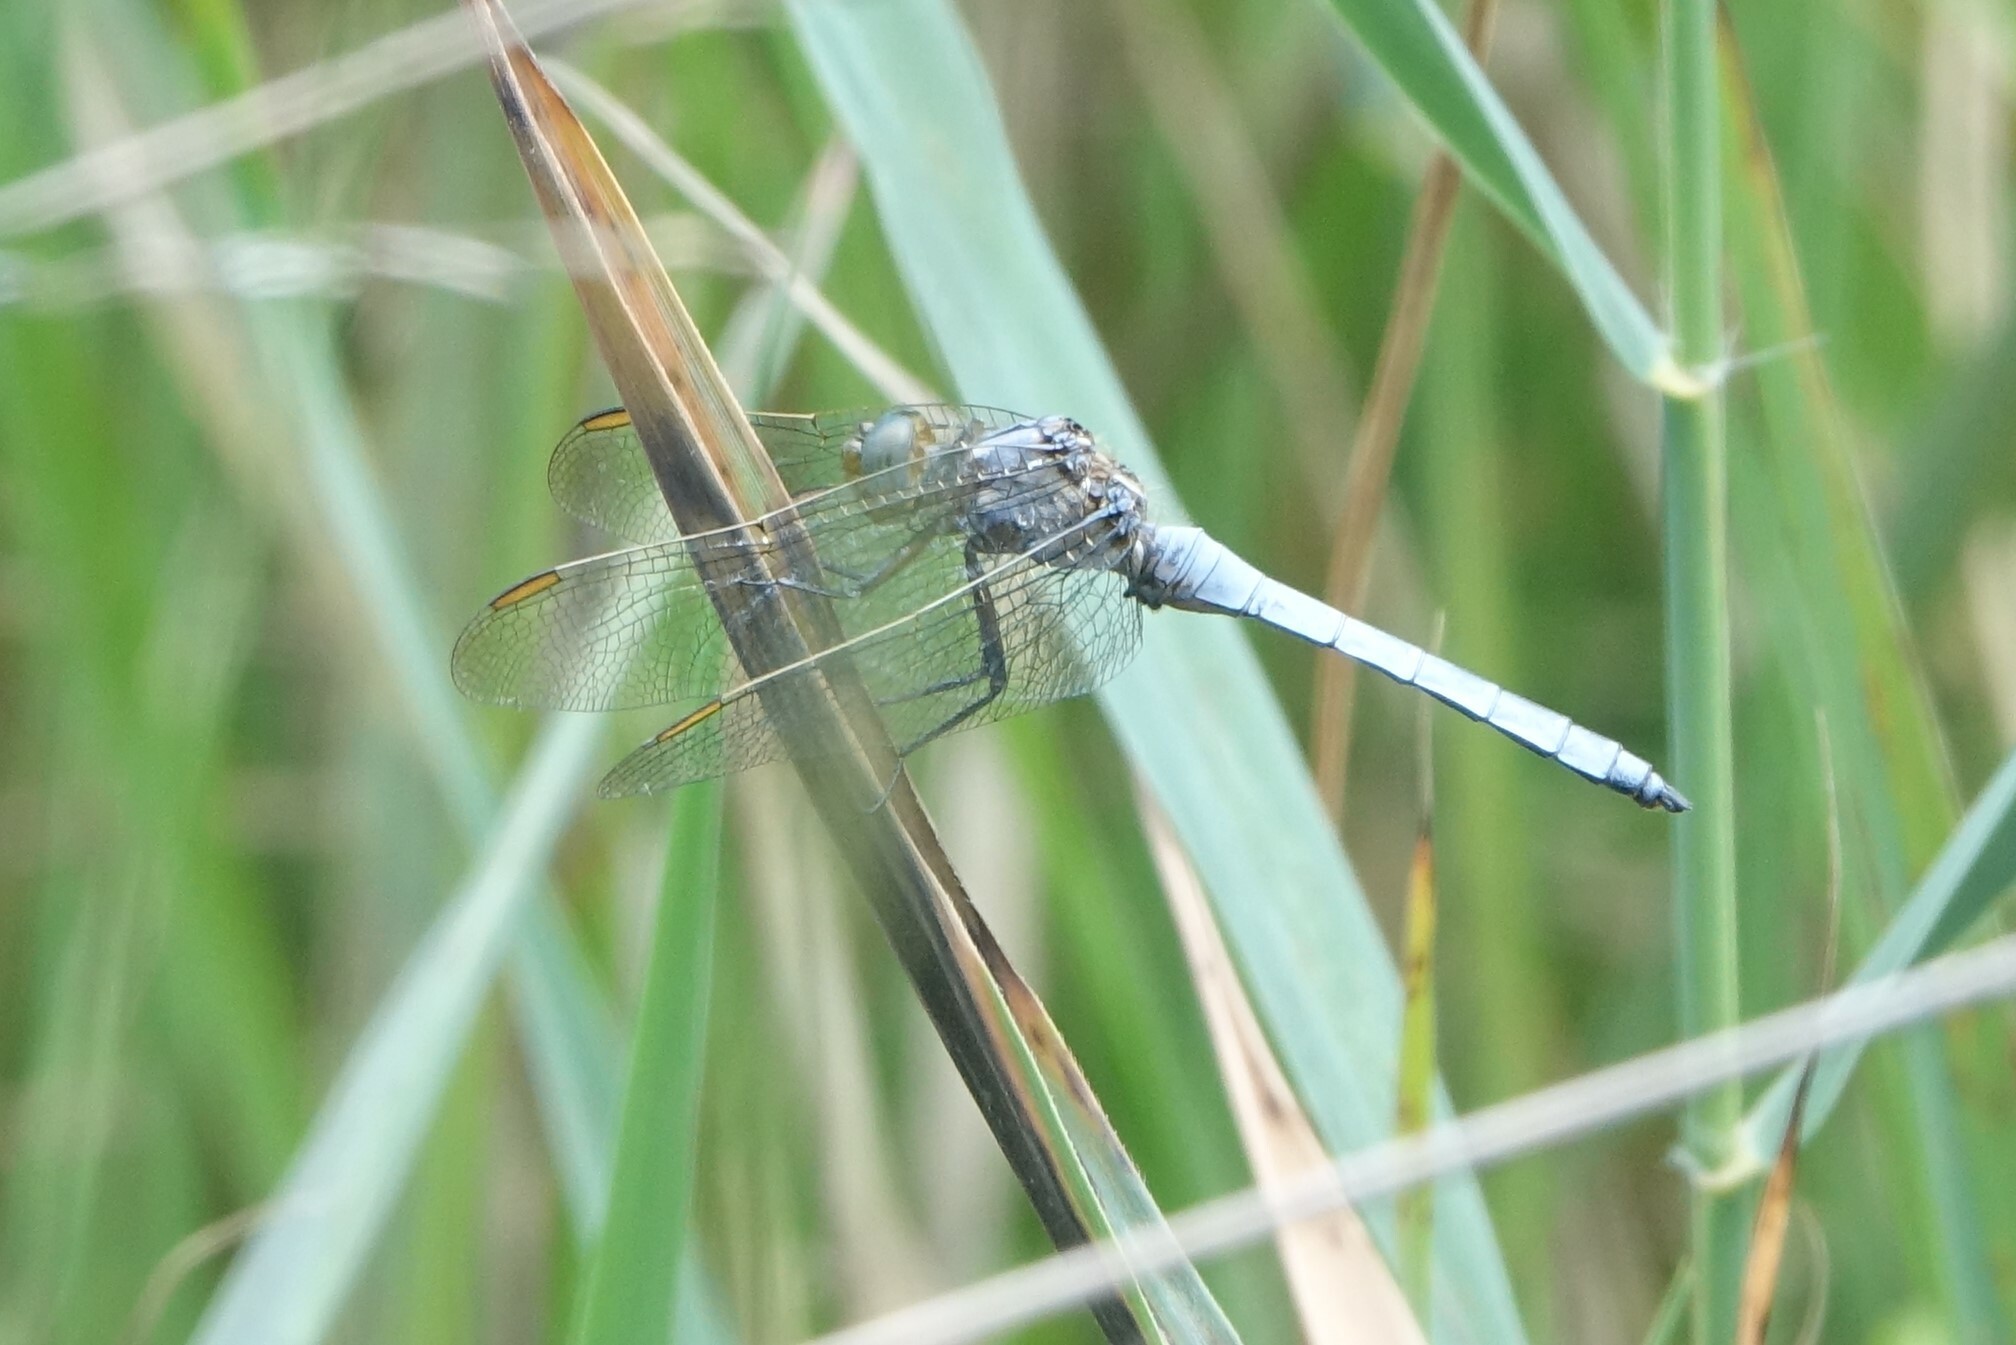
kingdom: Animalia
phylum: Arthropoda
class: Insecta
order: Odonata
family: Libellulidae
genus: Orthetrum
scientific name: Orthetrum coerulescens
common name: Keeled skimmer
